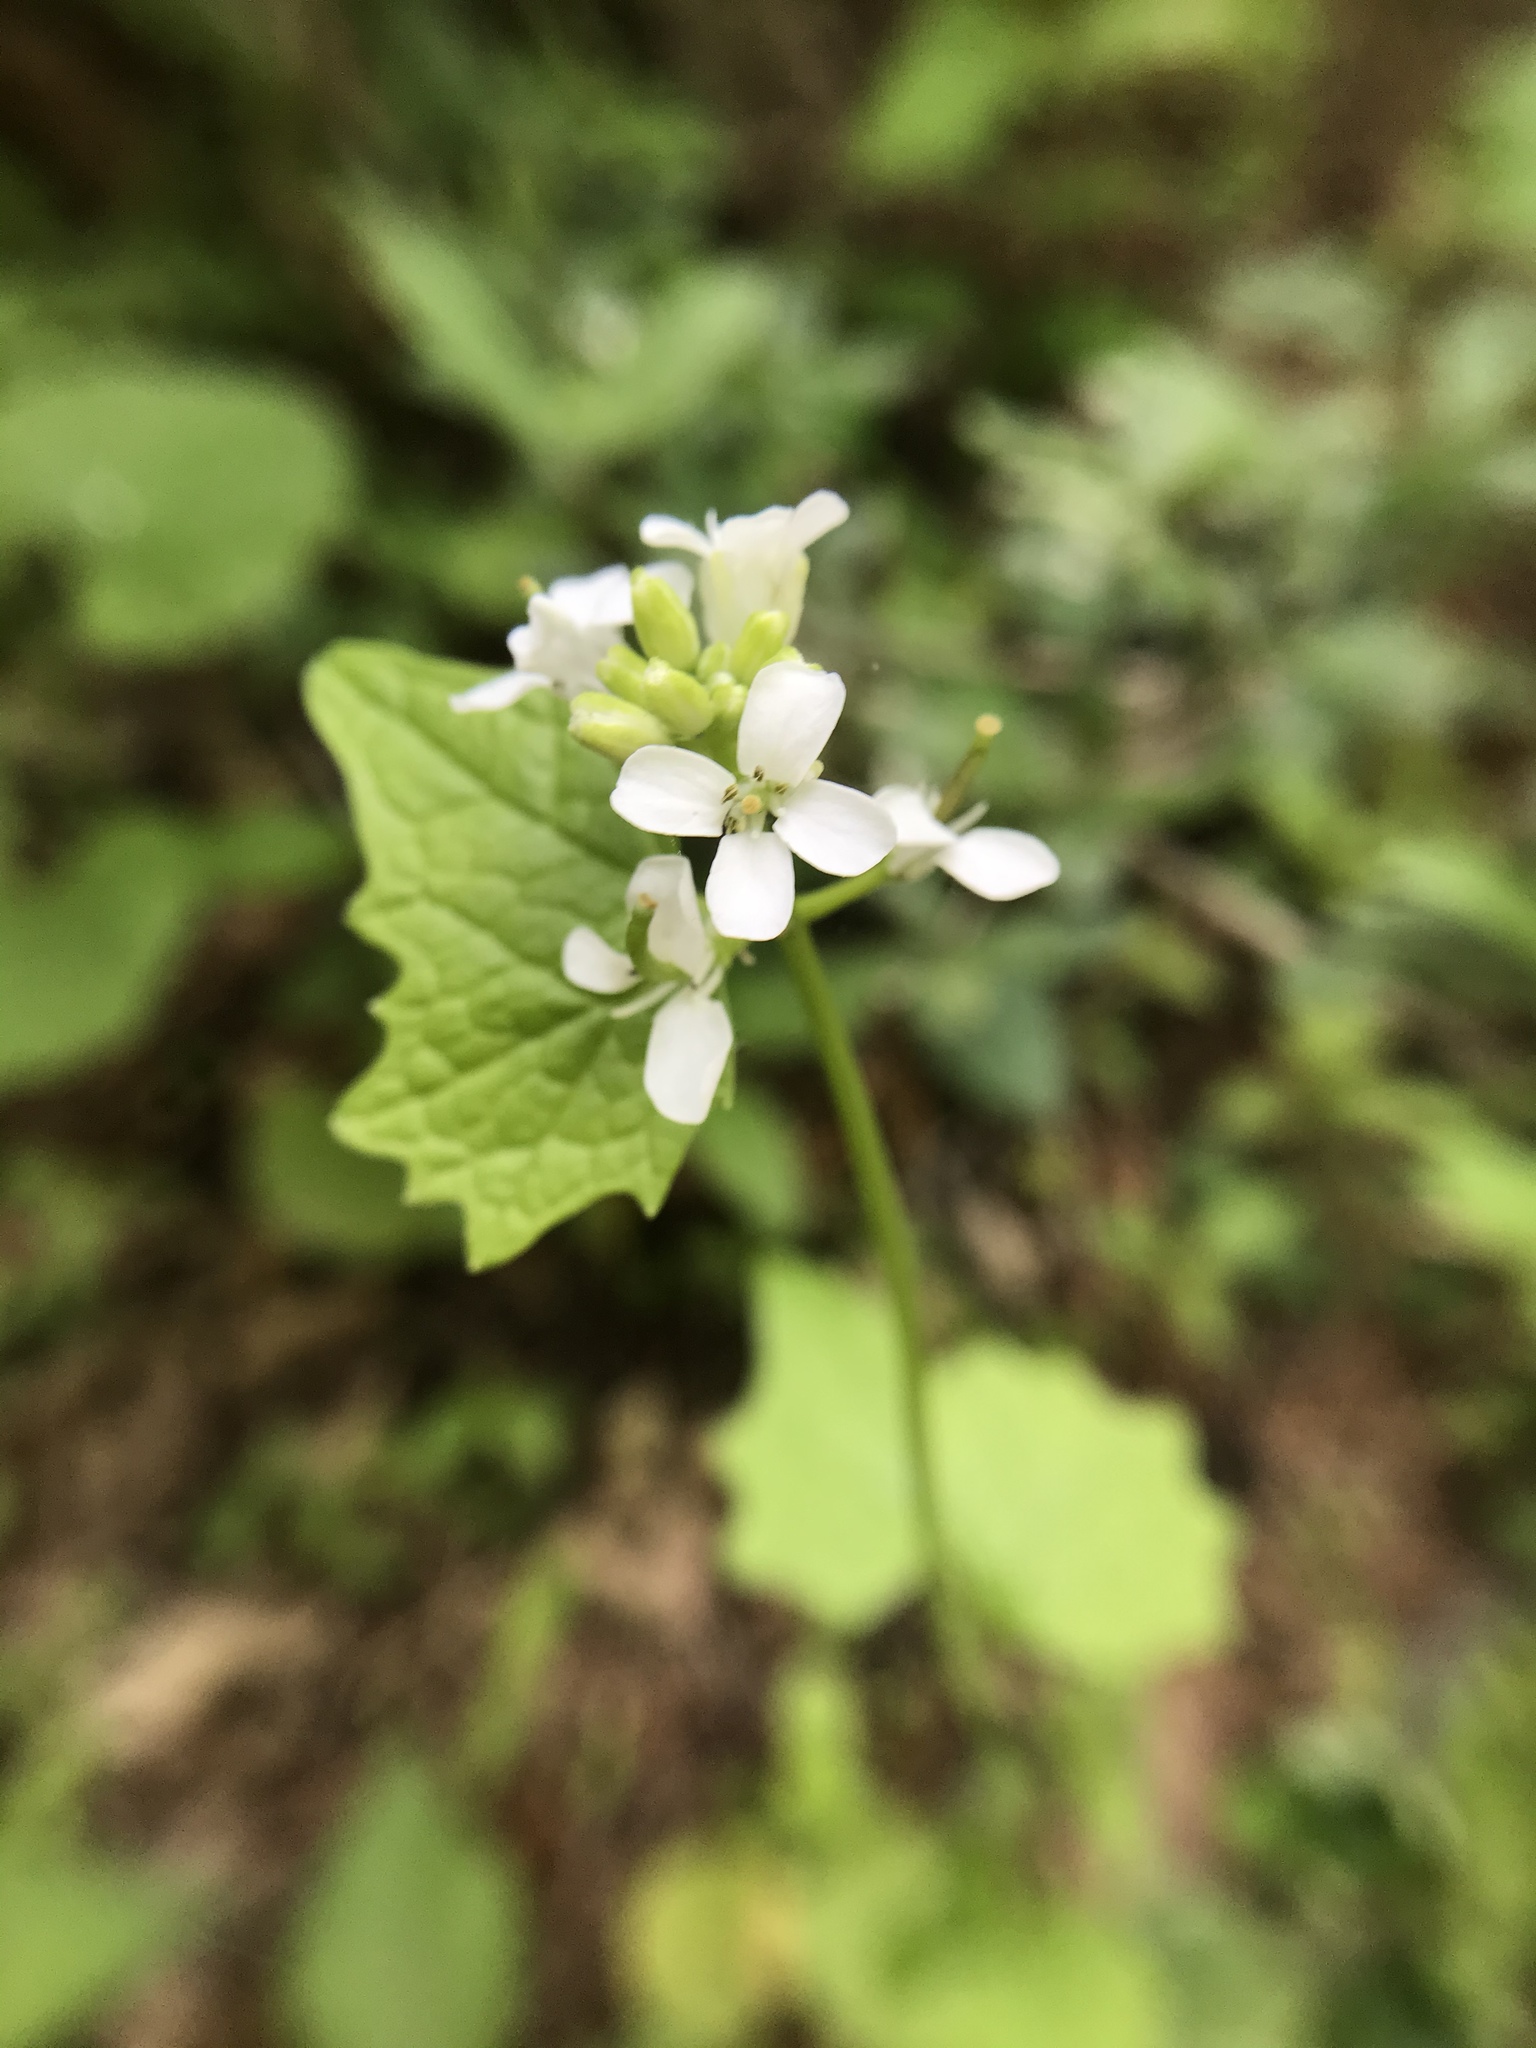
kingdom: Plantae
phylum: Tracheophyta
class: Magnoliopsida
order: Brassicales
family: Brassicaceae
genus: Alliaria
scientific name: Alliaria petiolata
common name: Garlic mustard
